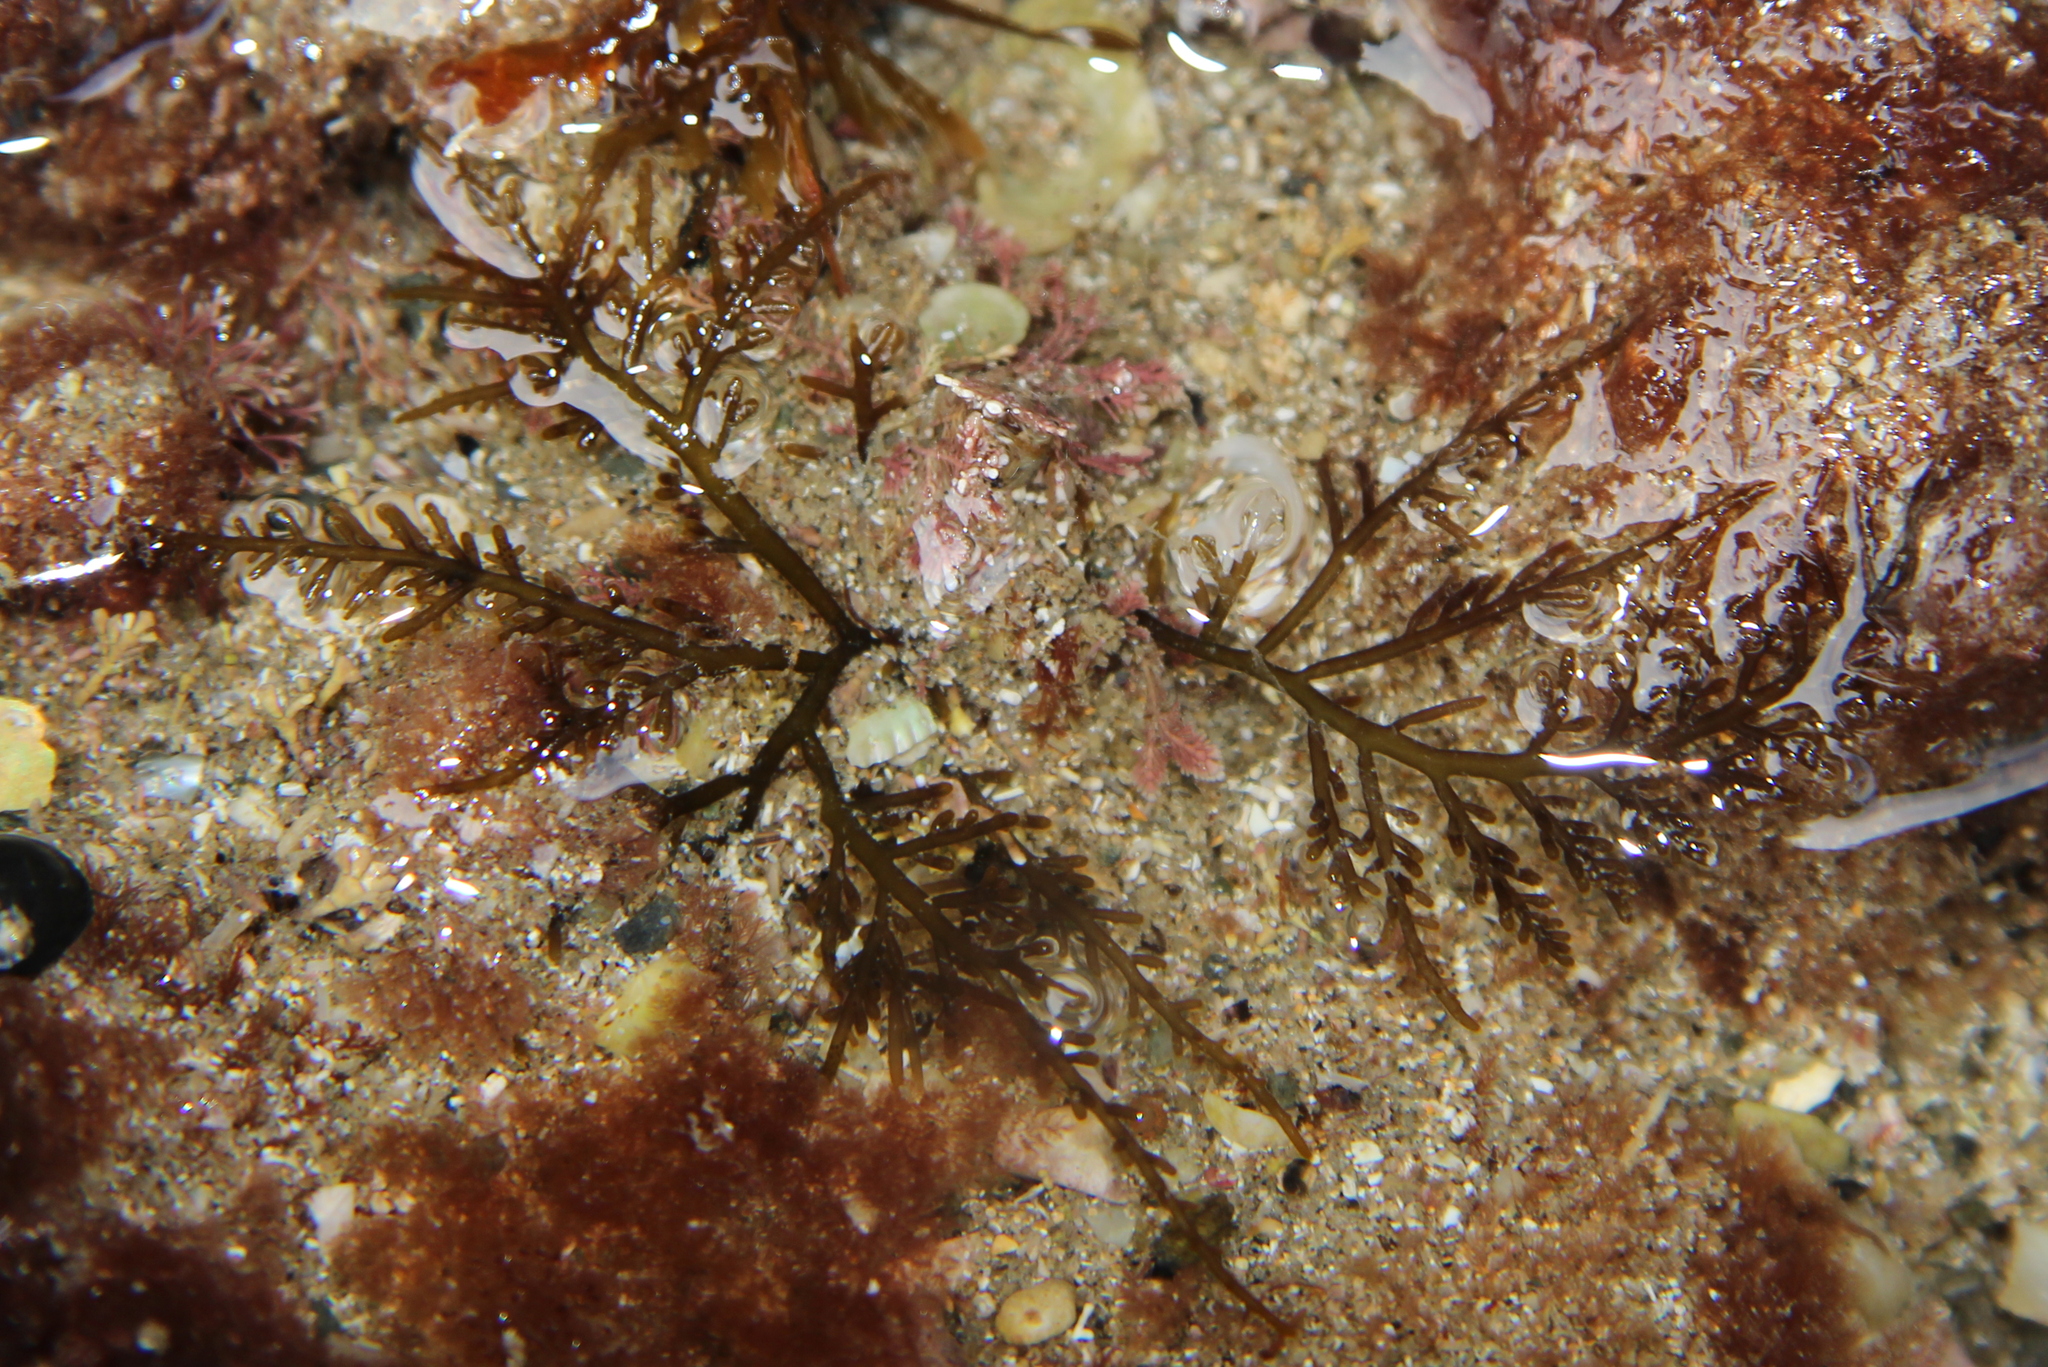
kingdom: Plantae
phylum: Rhodophyta
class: Florideophyceae
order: Ceramiales
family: Rhodomelaceae
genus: Chondria
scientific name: Chondria macrocarpa
